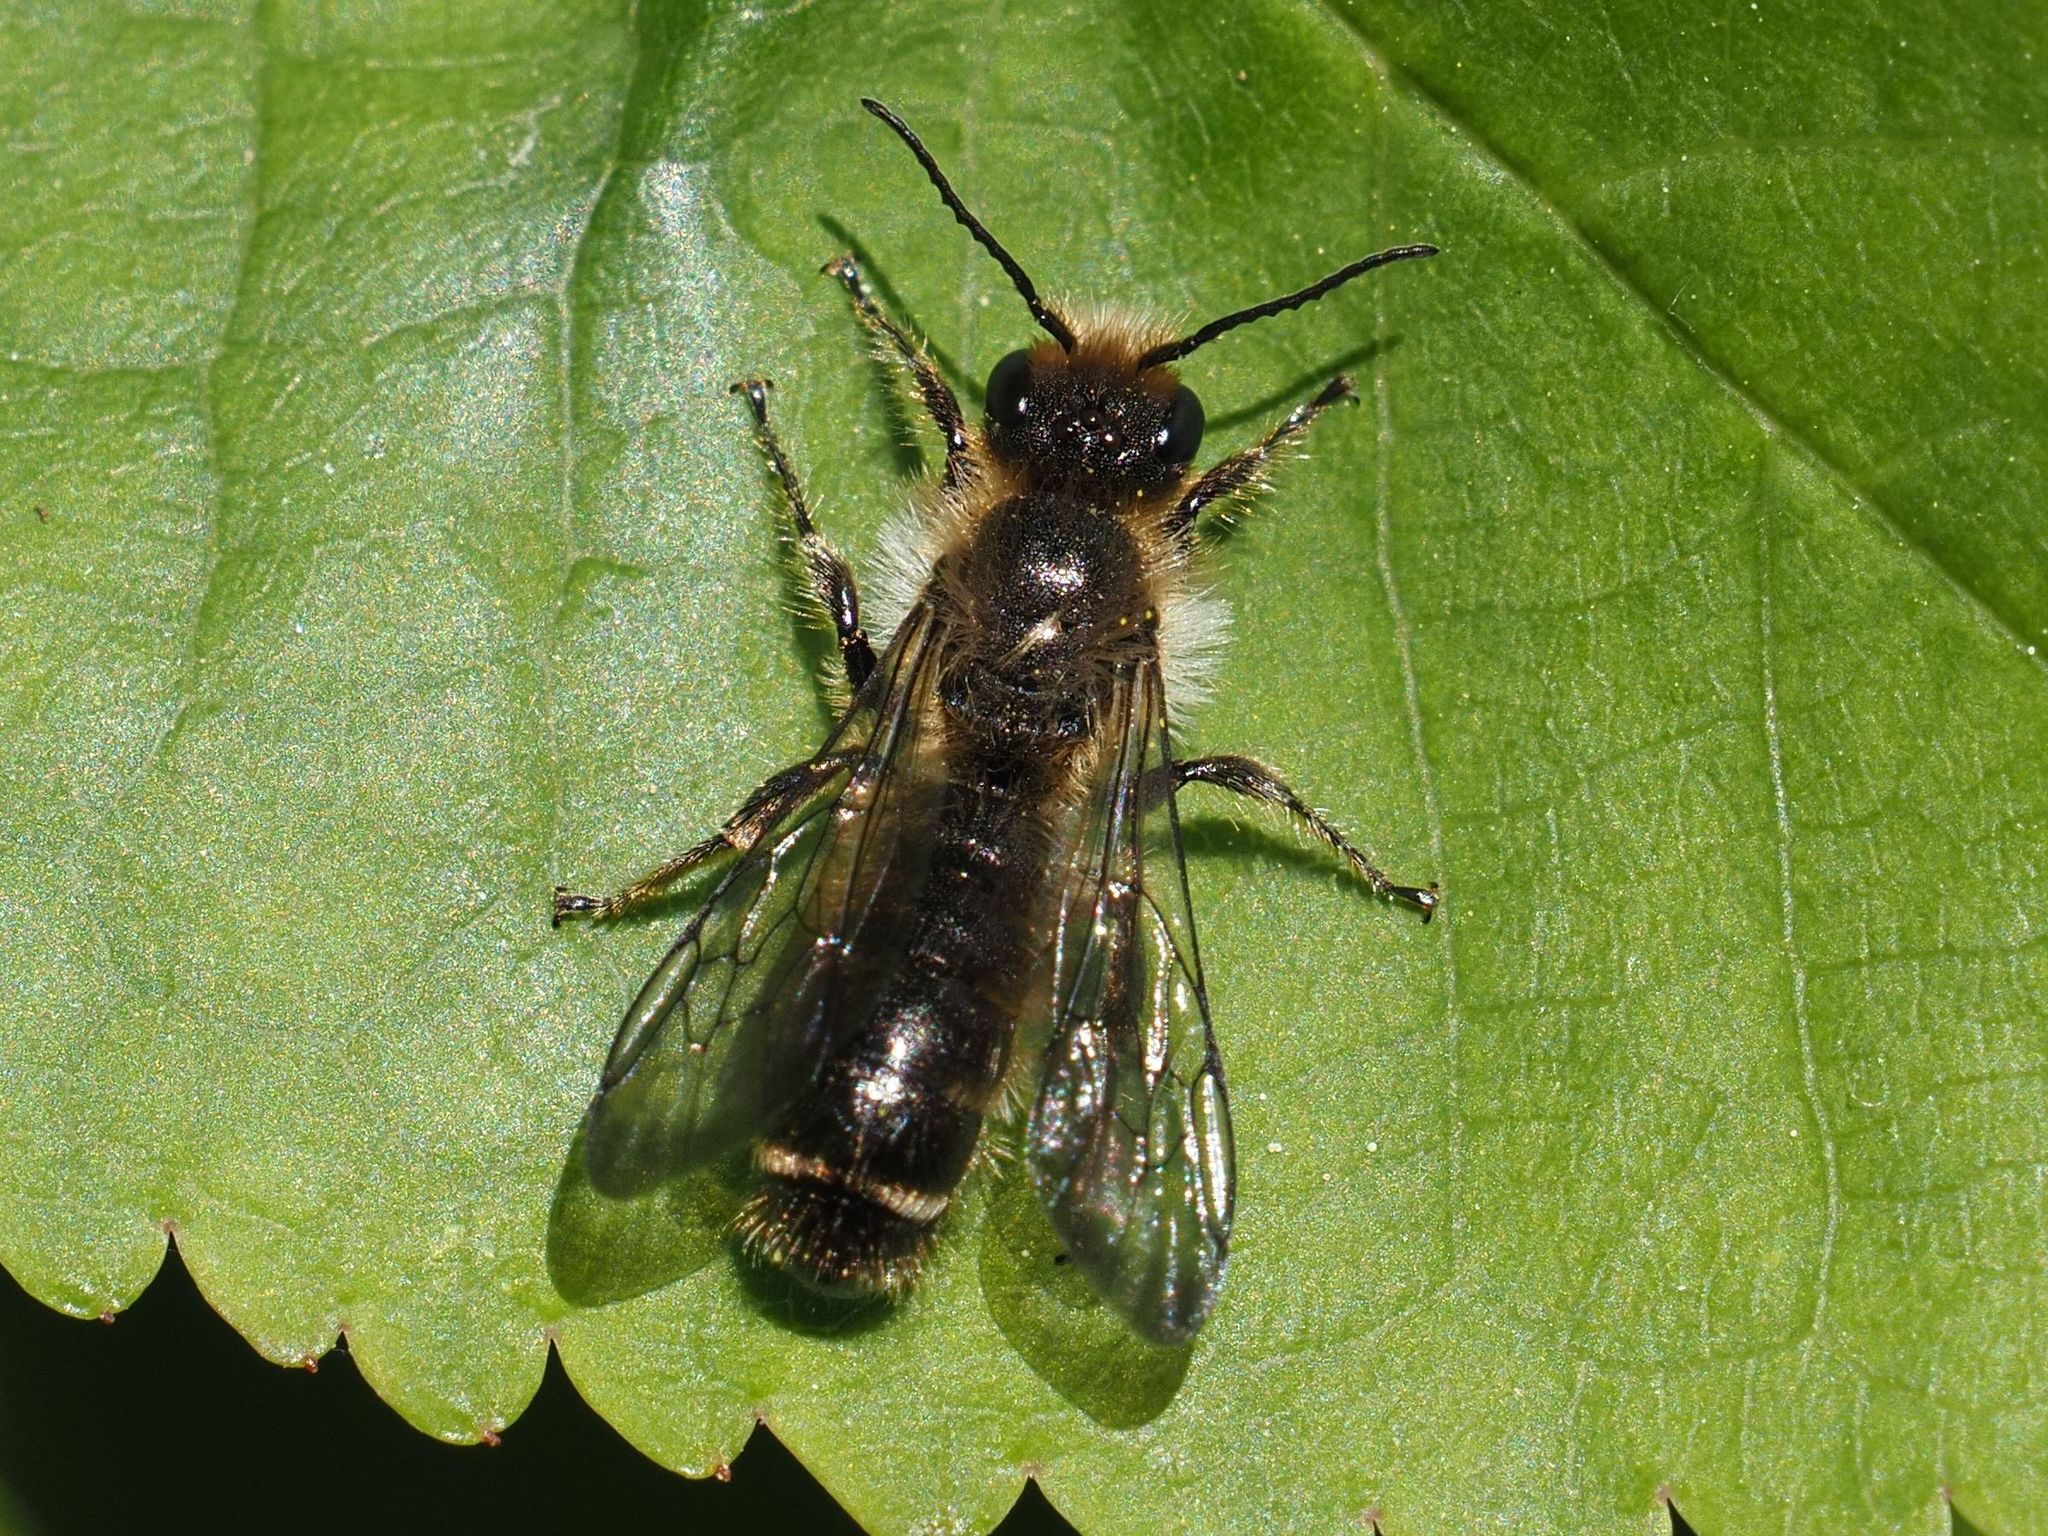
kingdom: Animalia
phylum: Arthropoda
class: Insecta
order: Hymenoptera
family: Megachilidae
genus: Chelostoma
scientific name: Chelostoma florisomne
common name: Sleepy carpenter bee
